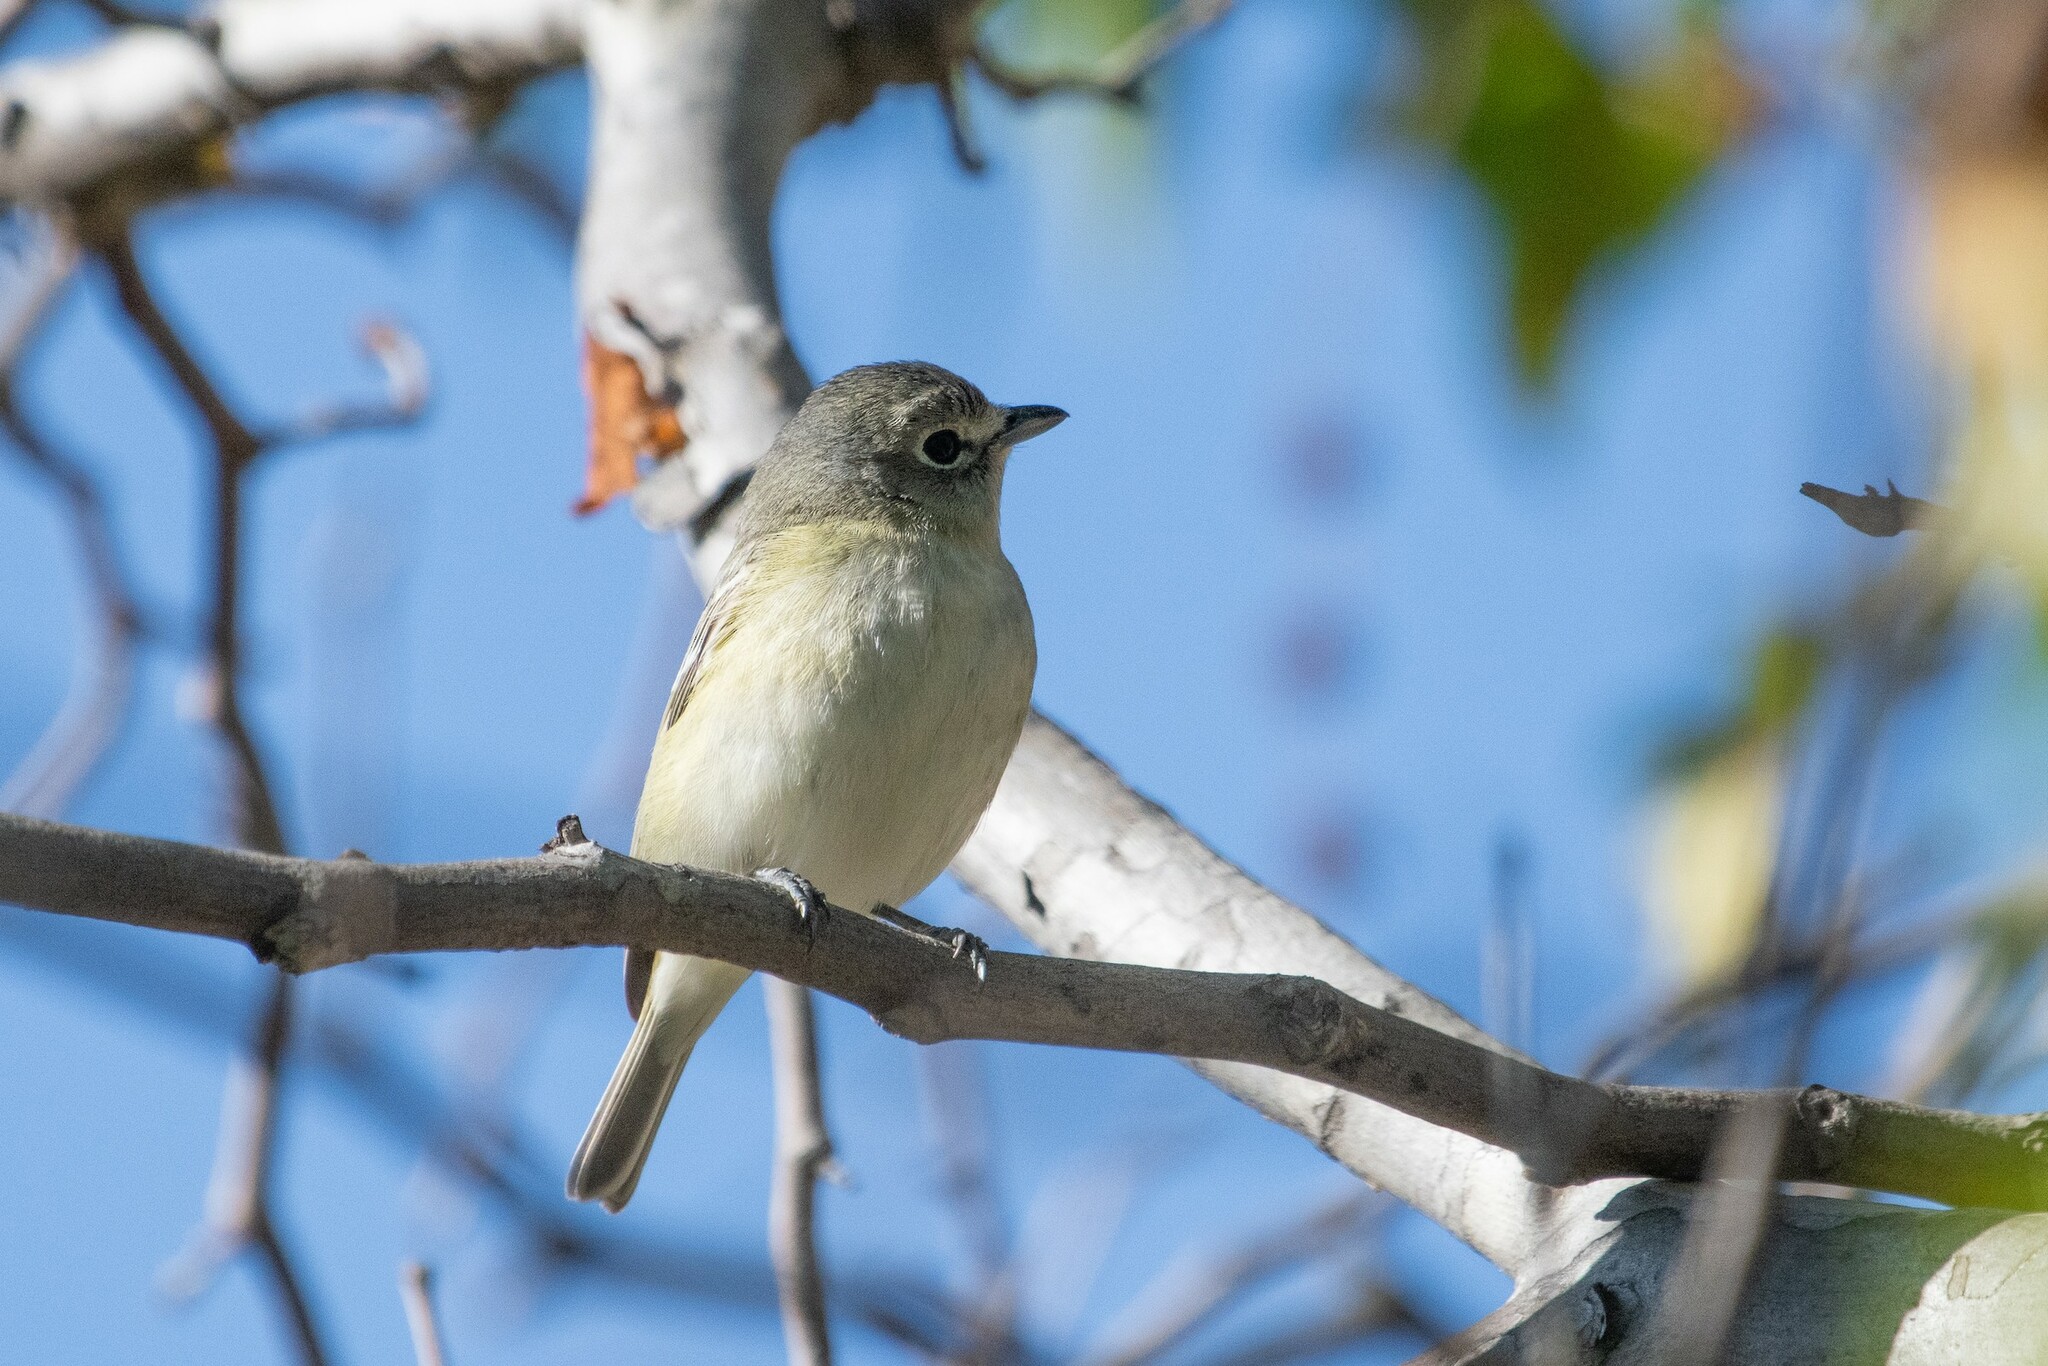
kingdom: Animalia
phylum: Chordata
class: Aves
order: Passeriformes
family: Vireonidae
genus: Vireo
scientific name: Vireo cassinii
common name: Cassin's vireo
